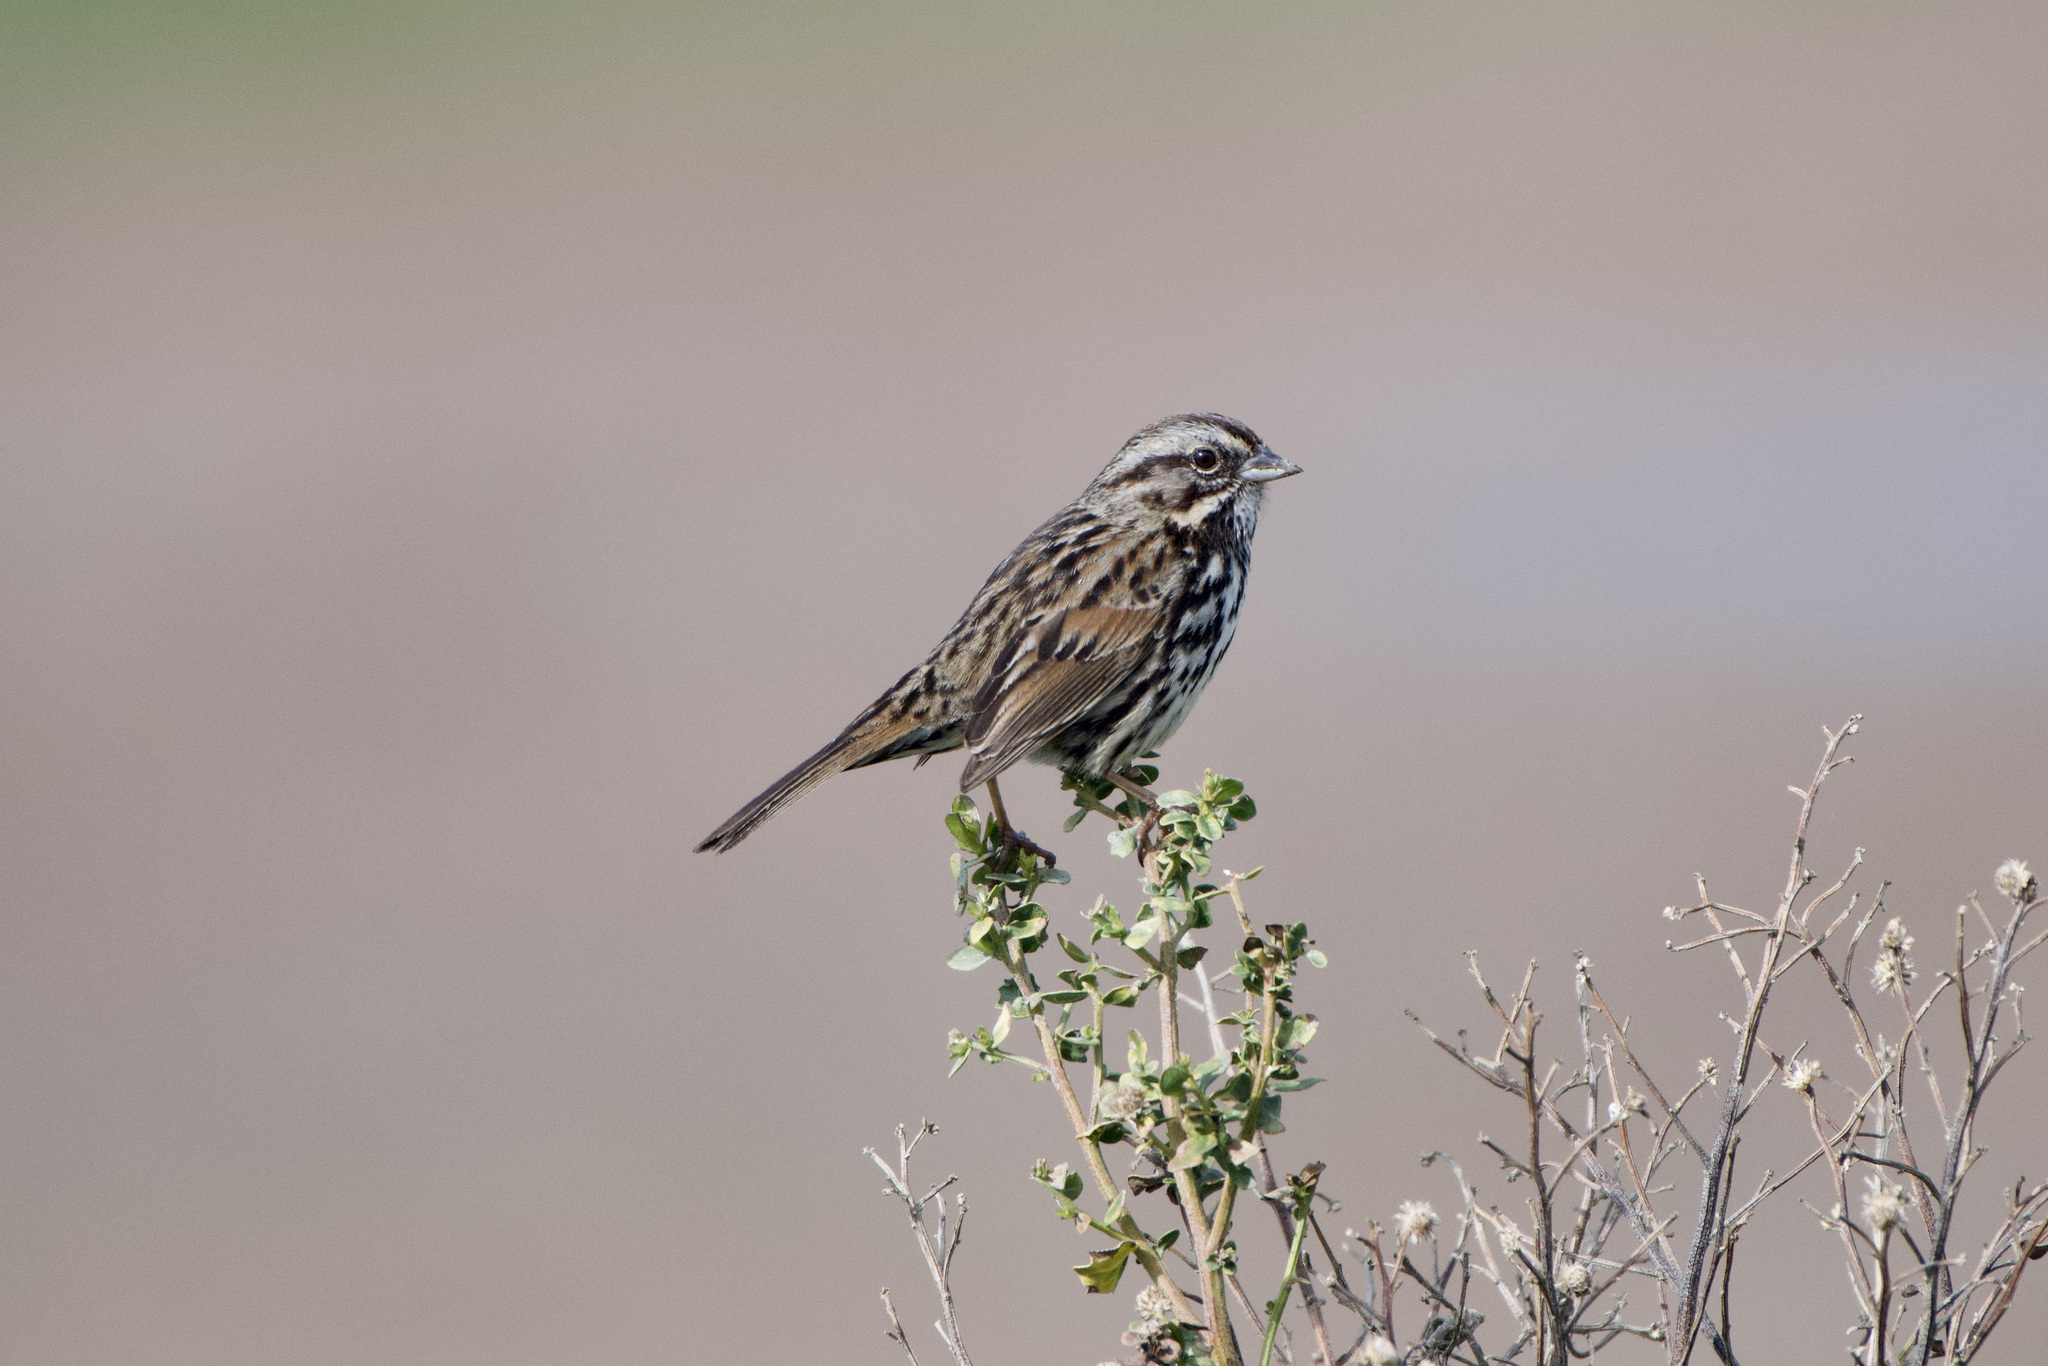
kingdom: Animalia
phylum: Chordata
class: Aves
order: Passeriformes
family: Passerellidae
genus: Melospiza
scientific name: Melospiza melodia
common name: Song sparrow
